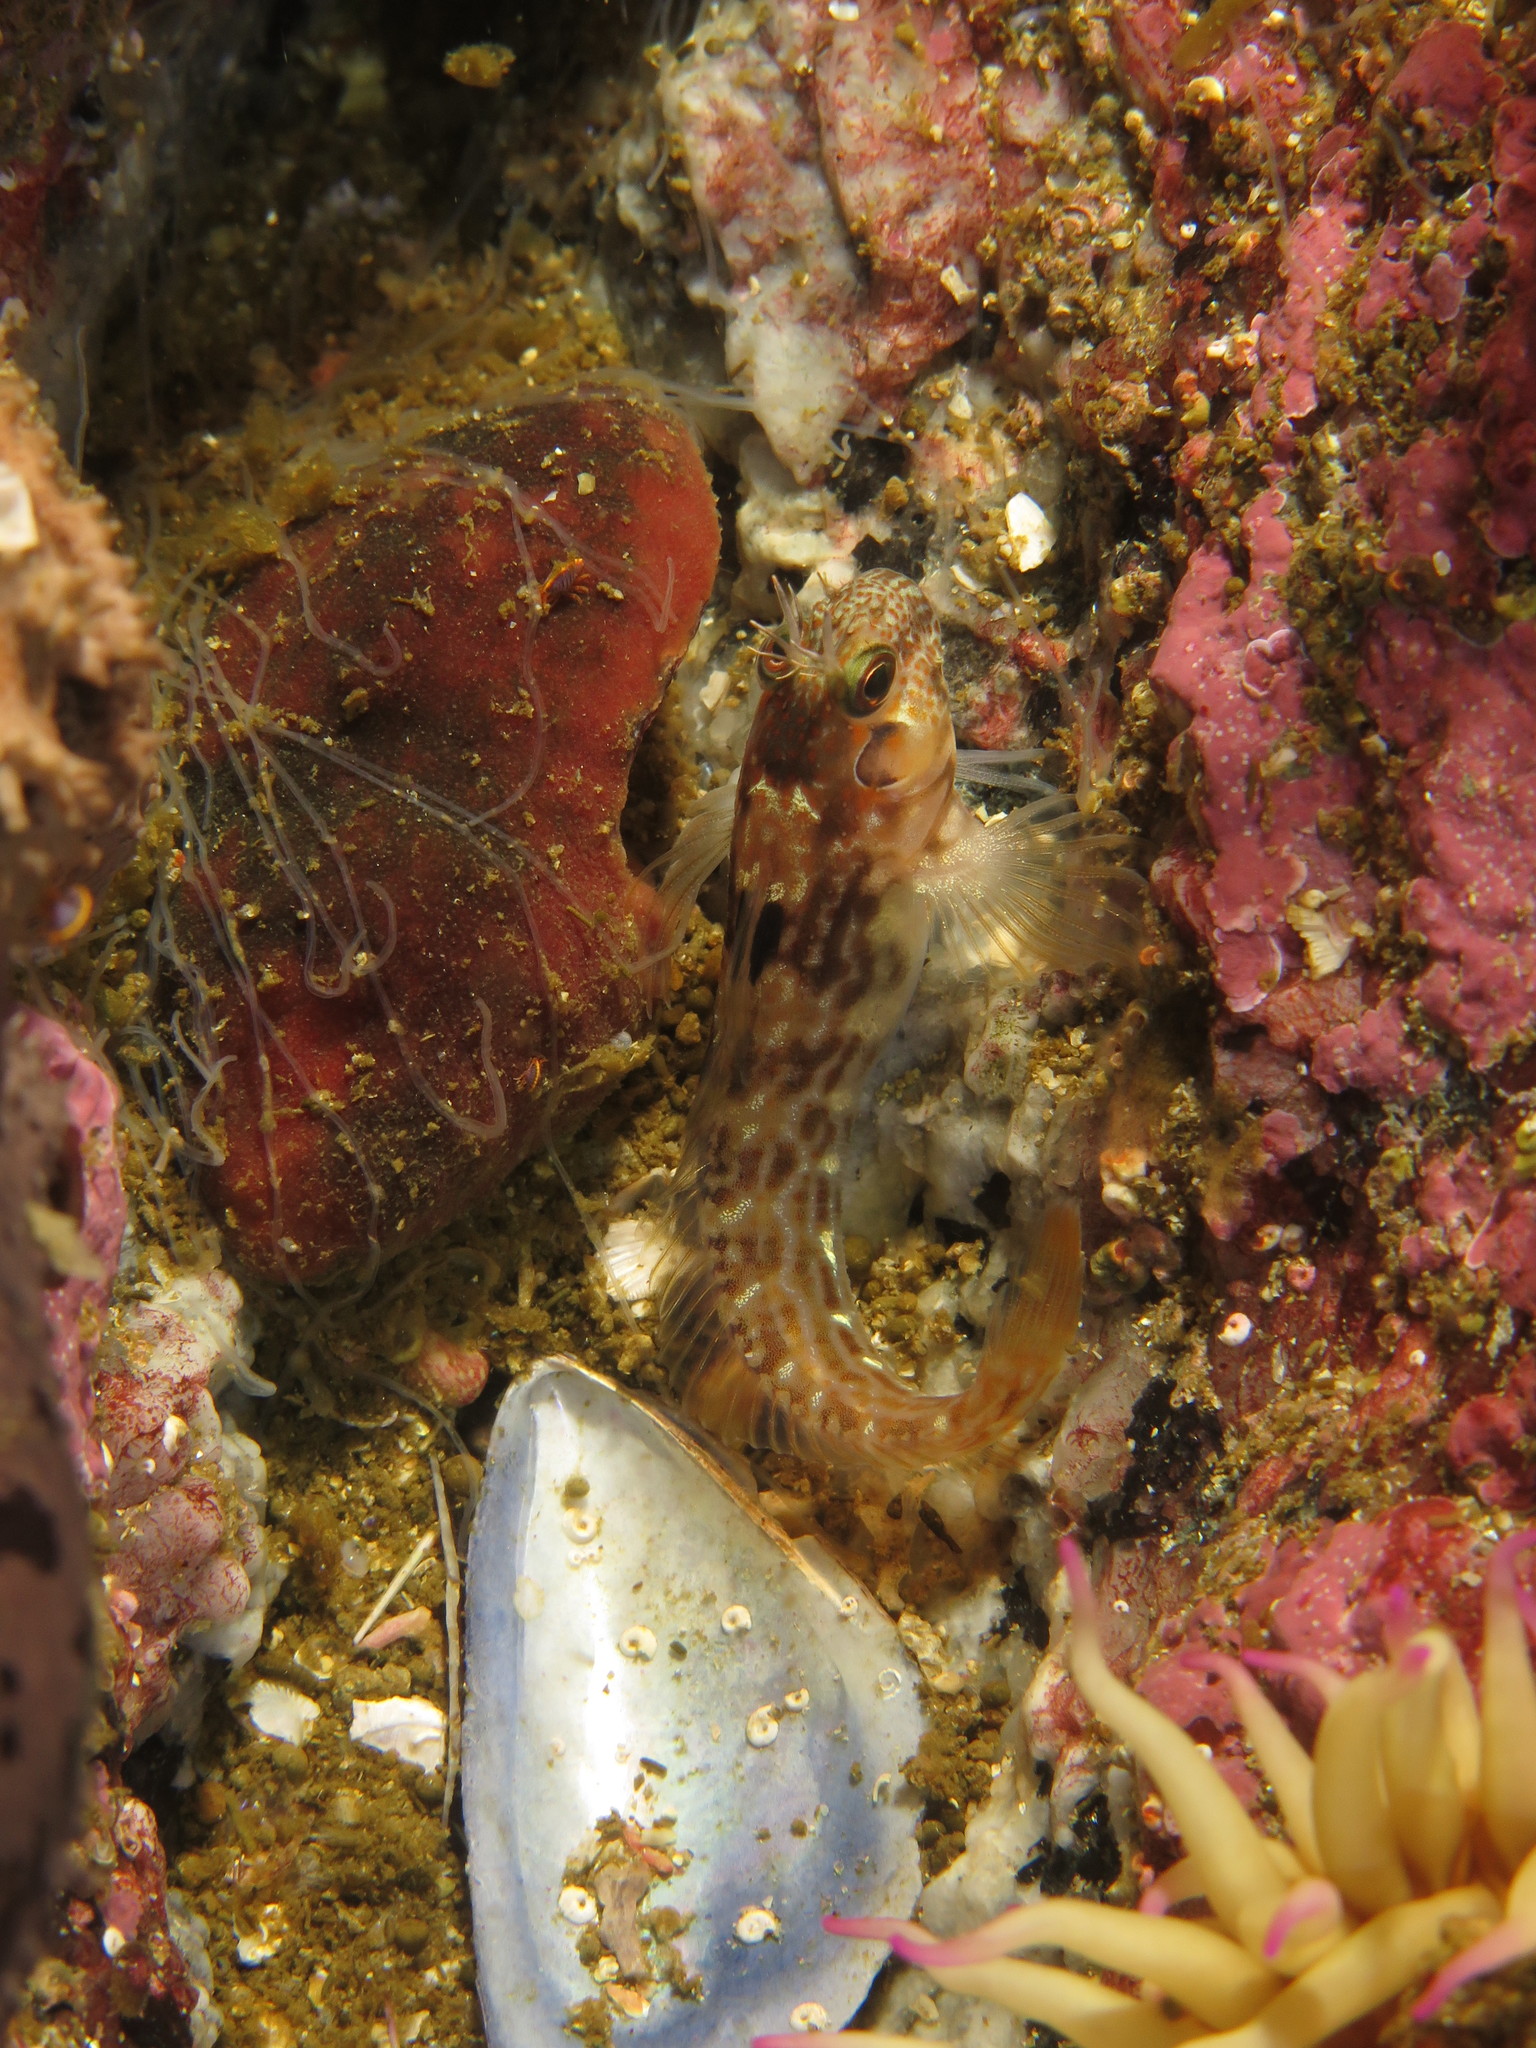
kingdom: Animalia
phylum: Chordata
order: Perciformes
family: Blenniidae
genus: Chalaroderma
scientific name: Chalaroderma ocellata
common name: Two-eyed blenny
